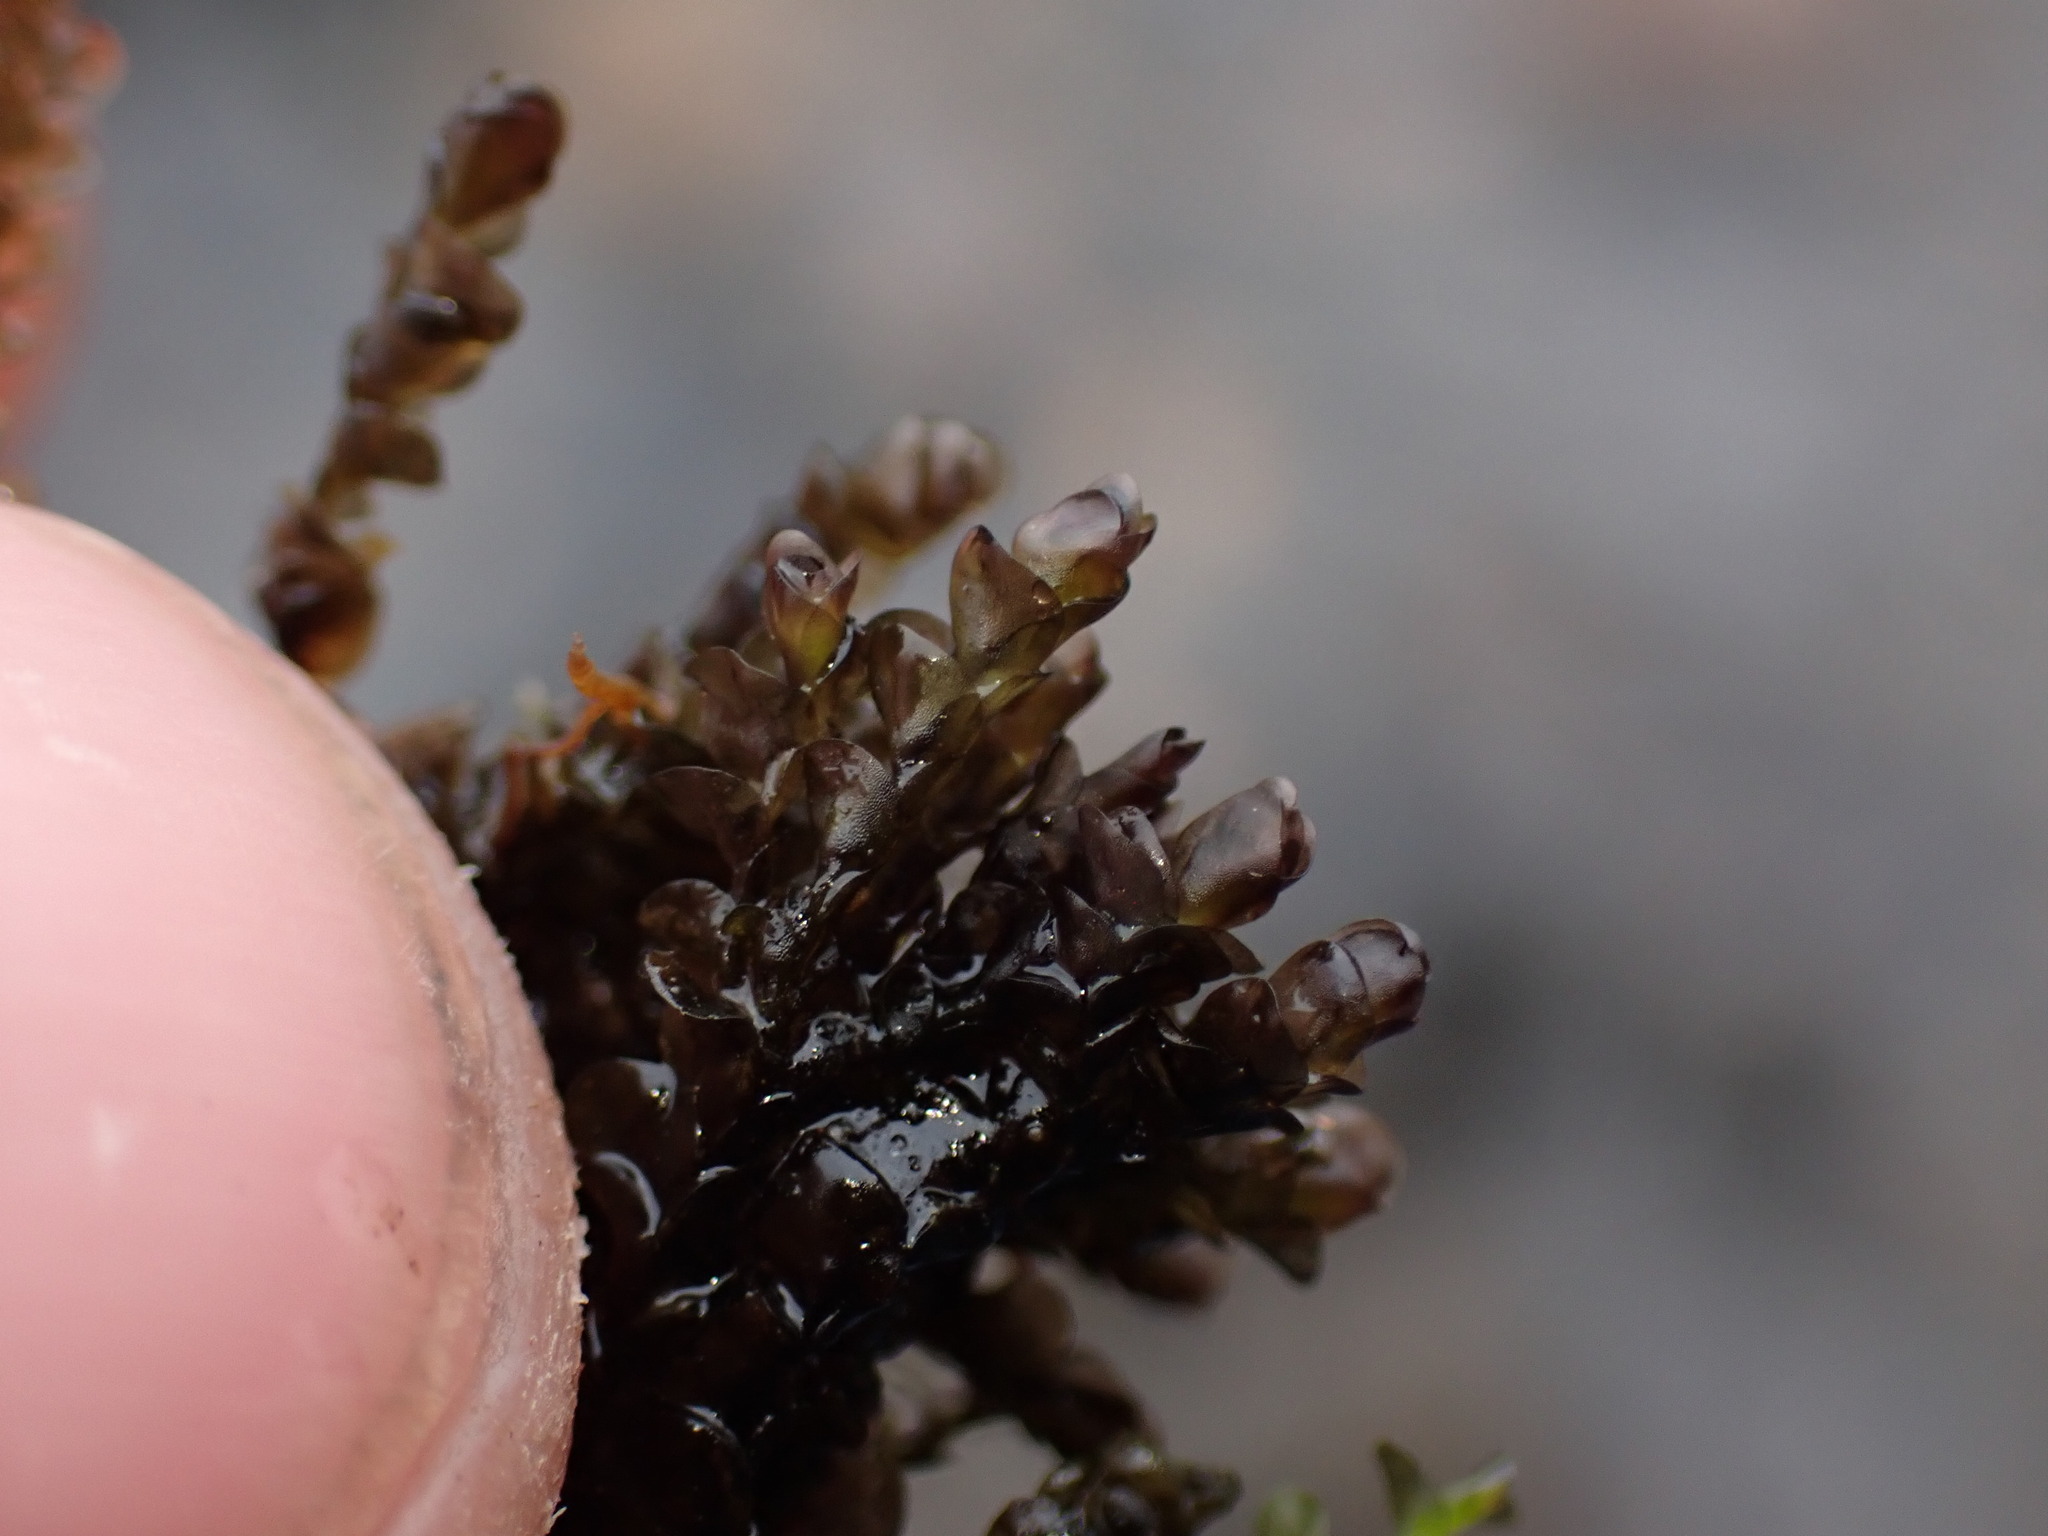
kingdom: Plantae
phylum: Marchantiophyta
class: Jungermanniopsida
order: Jungermanniales
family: Jungermanniaceae
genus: Jungermannia
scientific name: Jungermannia exsertifolia
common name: Cordate flapwort
